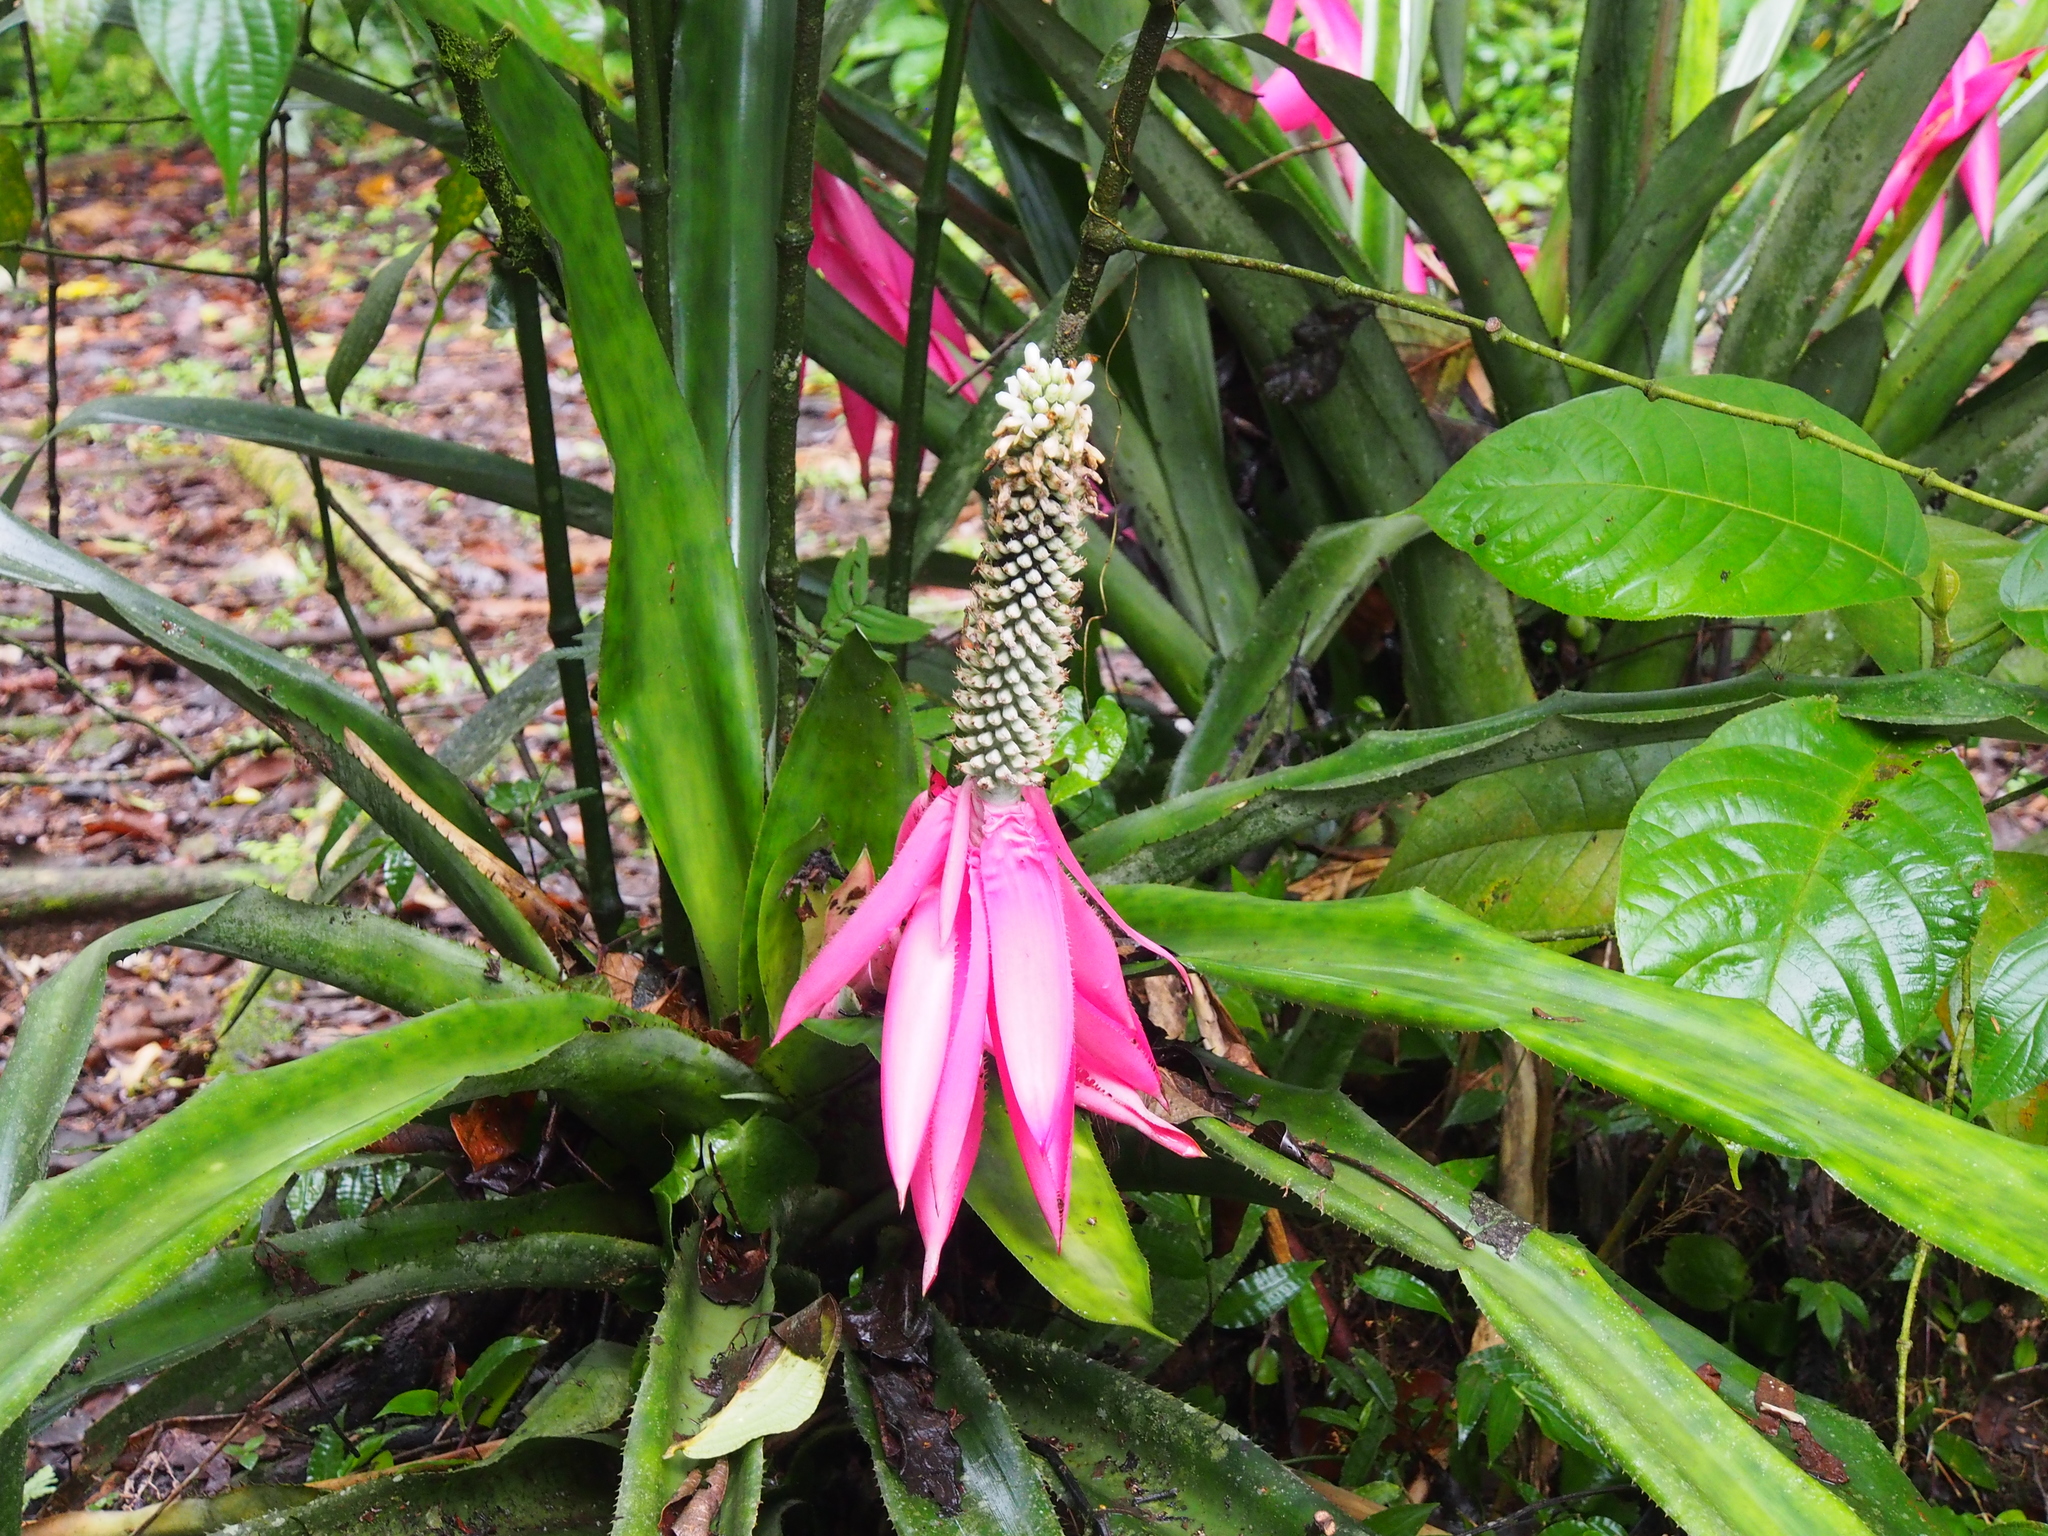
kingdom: Plantae
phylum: Tracheophyta
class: Liliopsida
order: Poales
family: Bromeliaceae
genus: Aechmea
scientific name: Aechmea mariae-reginae
